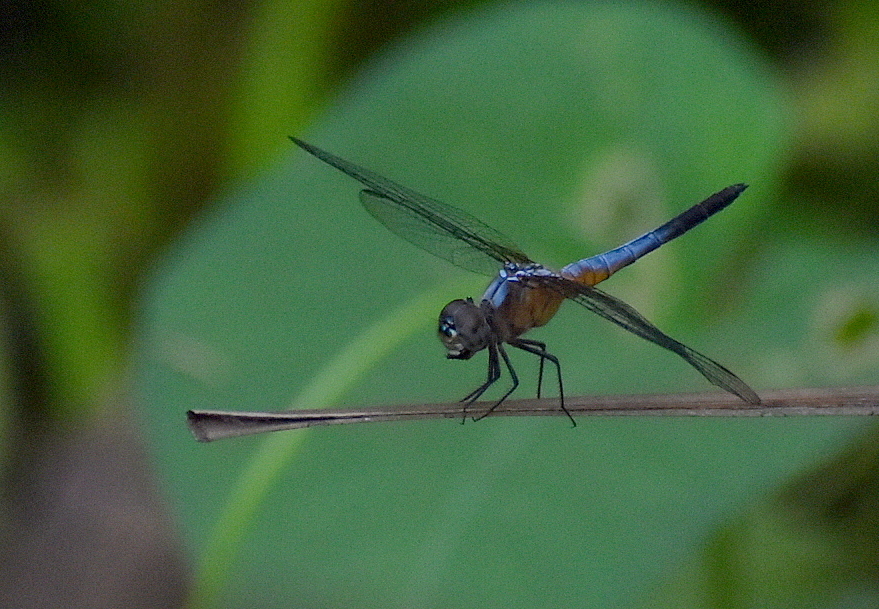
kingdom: Animalia
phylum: Arthropoda
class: Insecta
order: Odonata
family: Libellulidae
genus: Brachydiplax
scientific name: Brachydiplax chalybea
